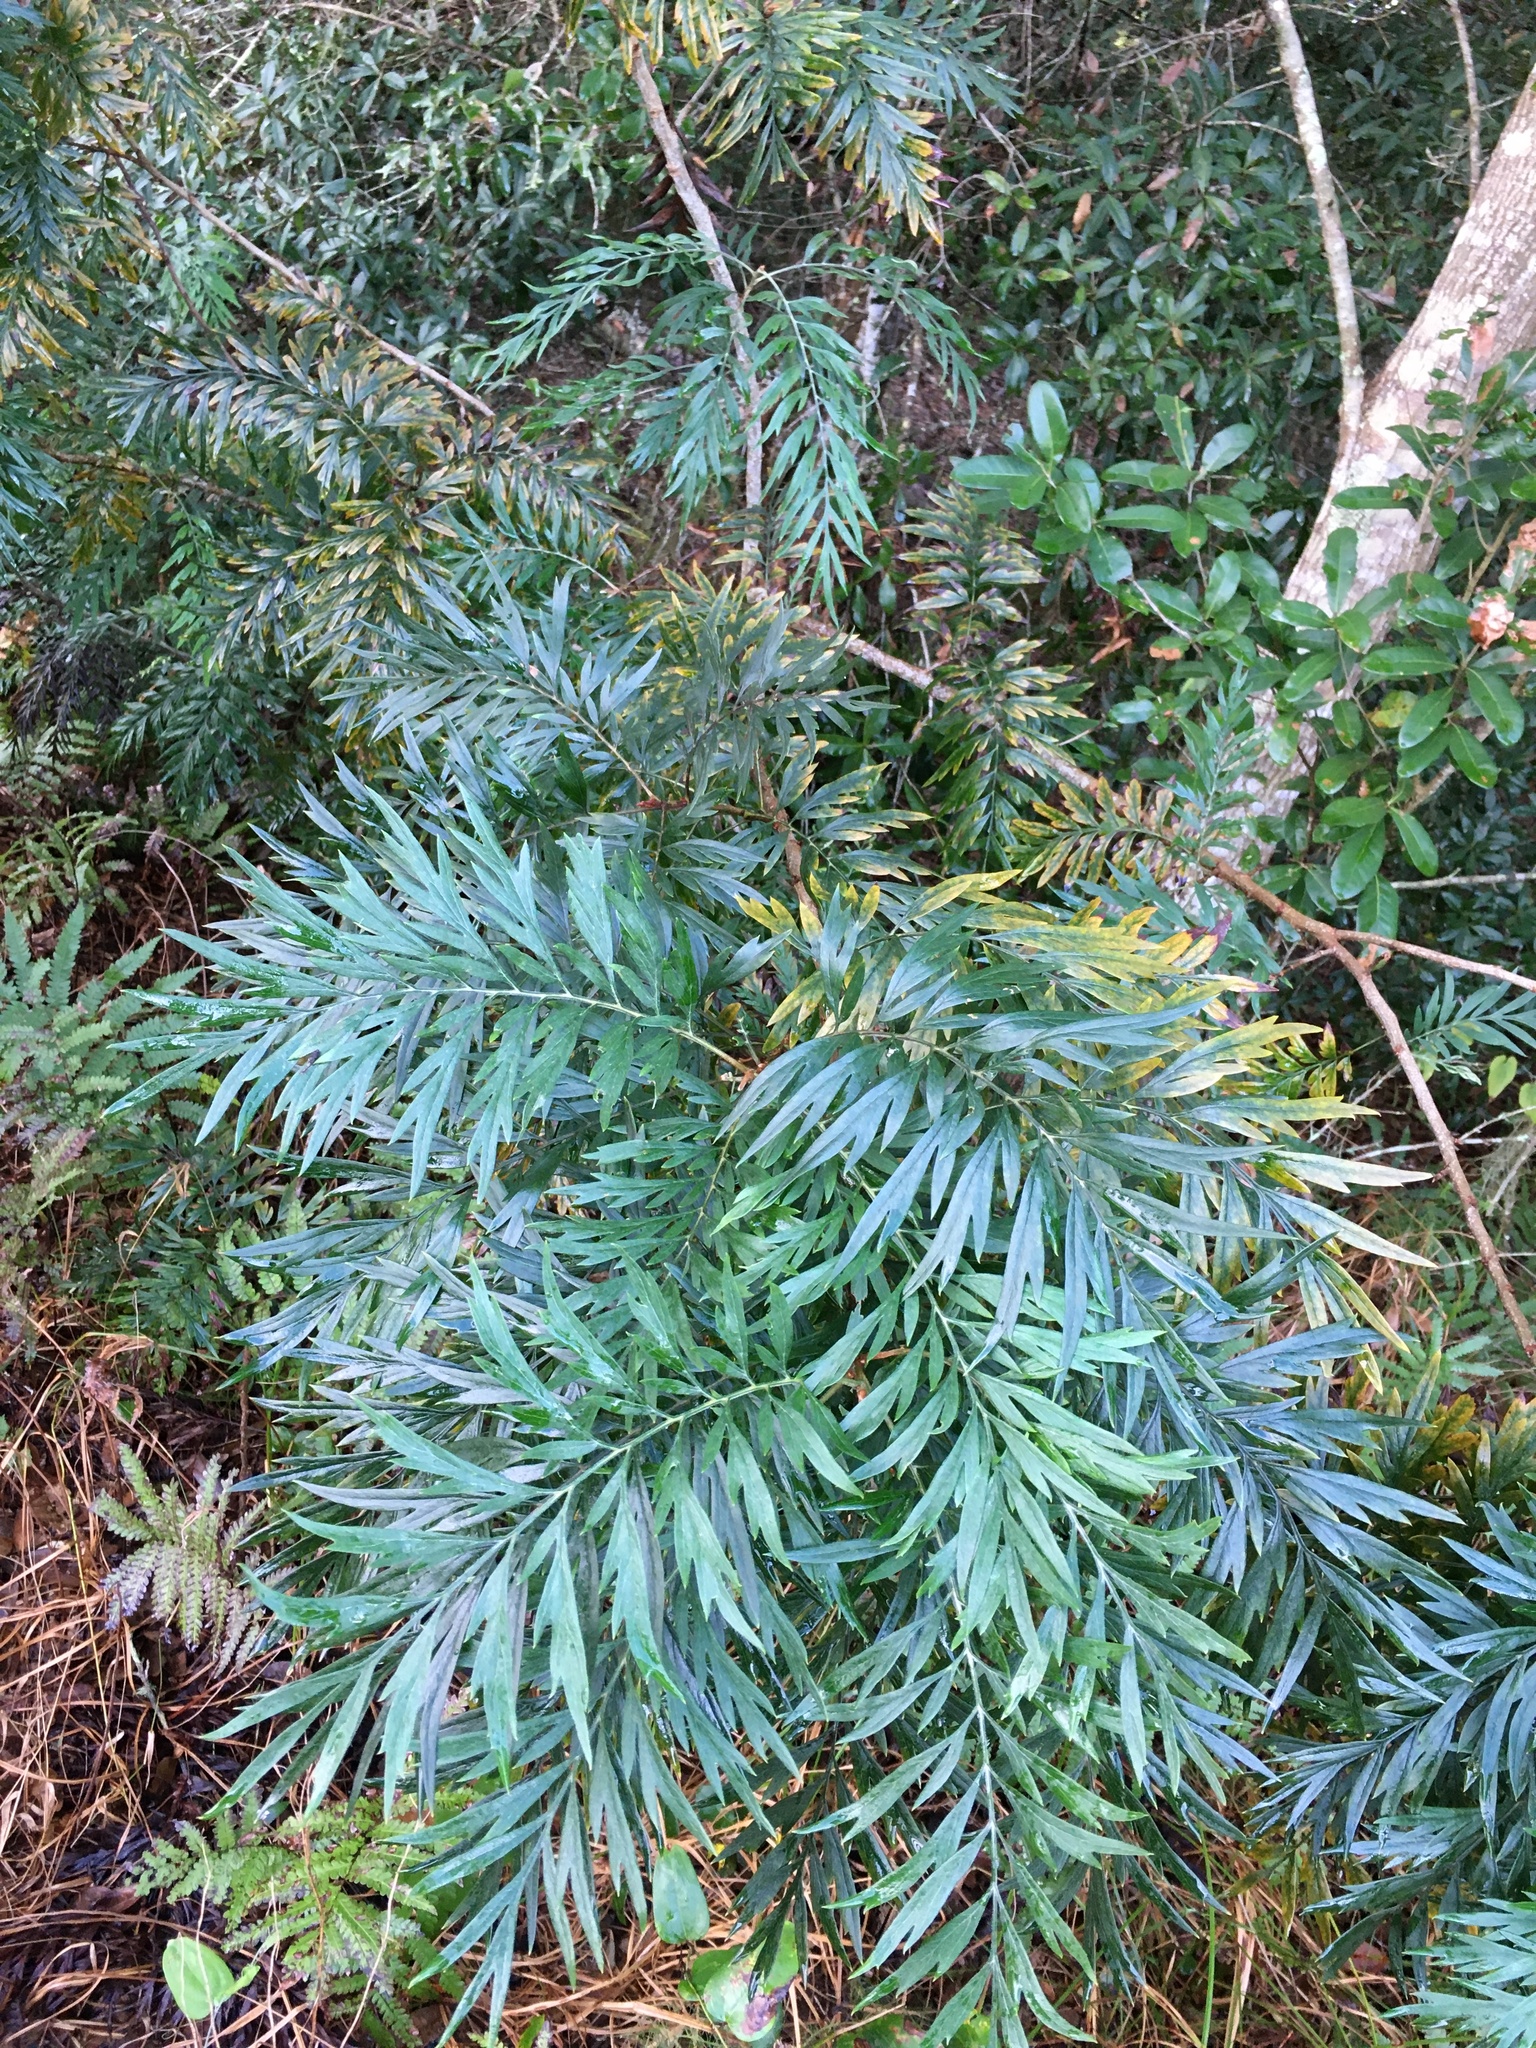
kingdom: Plantae
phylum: Tracheophyta
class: Magnoliopsida
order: Proteales
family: Proteaceae
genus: Grevillea
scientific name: Grevillea robusta
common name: Silkoak
